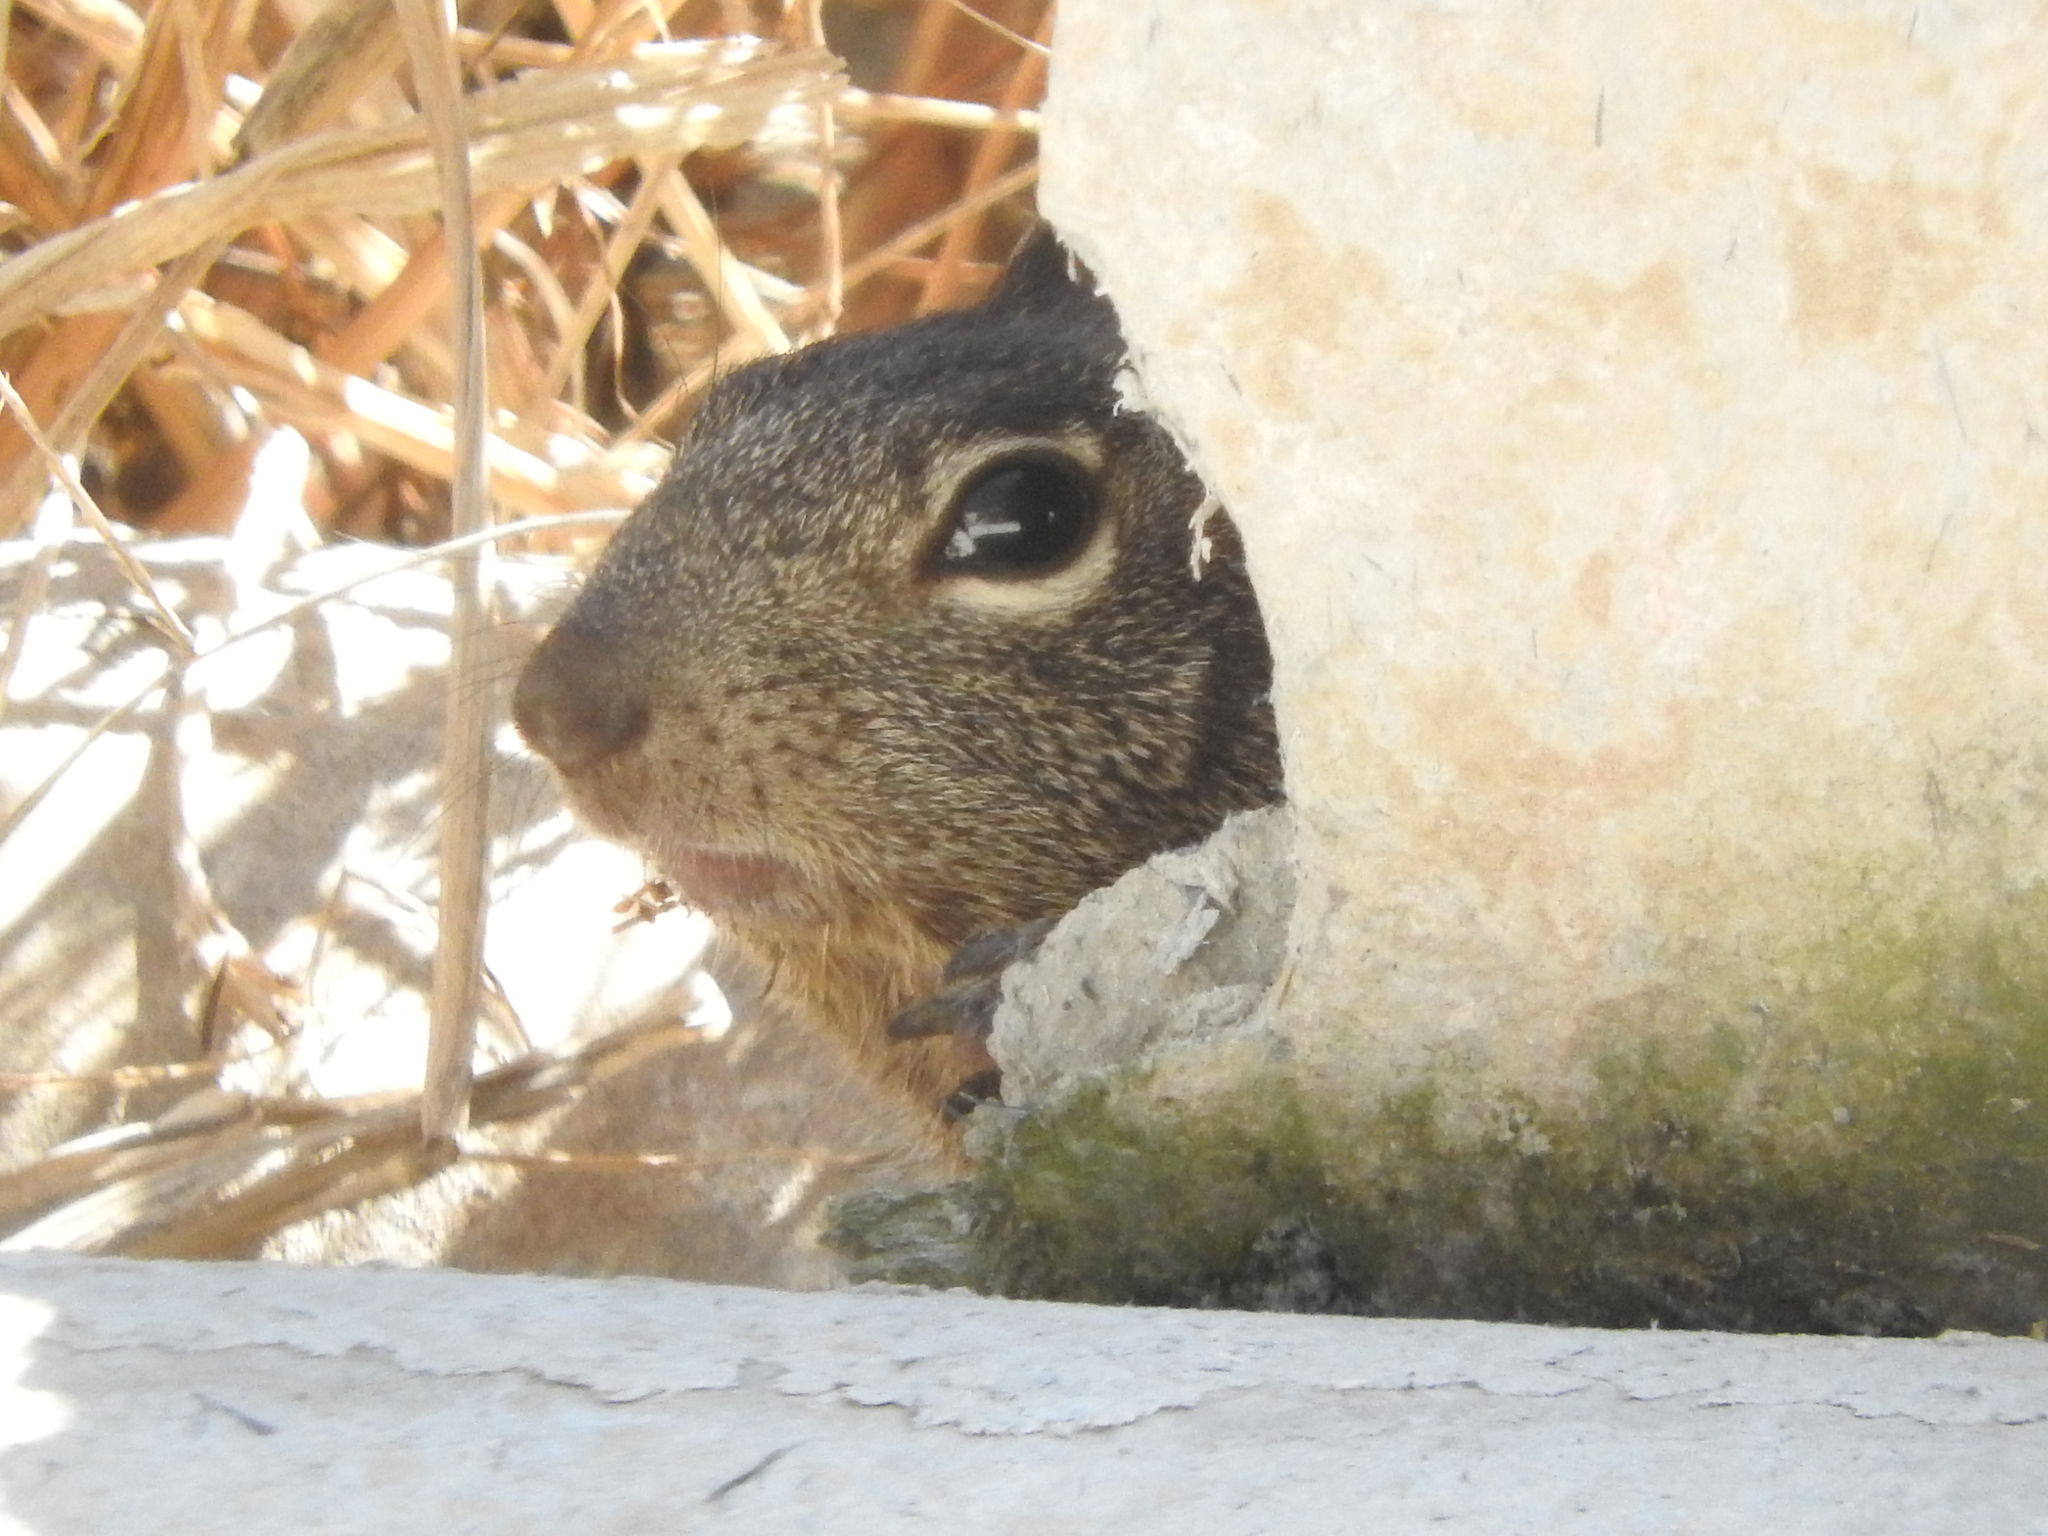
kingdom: Animalia
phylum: Chordata
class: Mammalia
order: Rodentia
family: Sciuridae
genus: Otospermophilus
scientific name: Otospermophilus variegatus
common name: Rock squirrel
